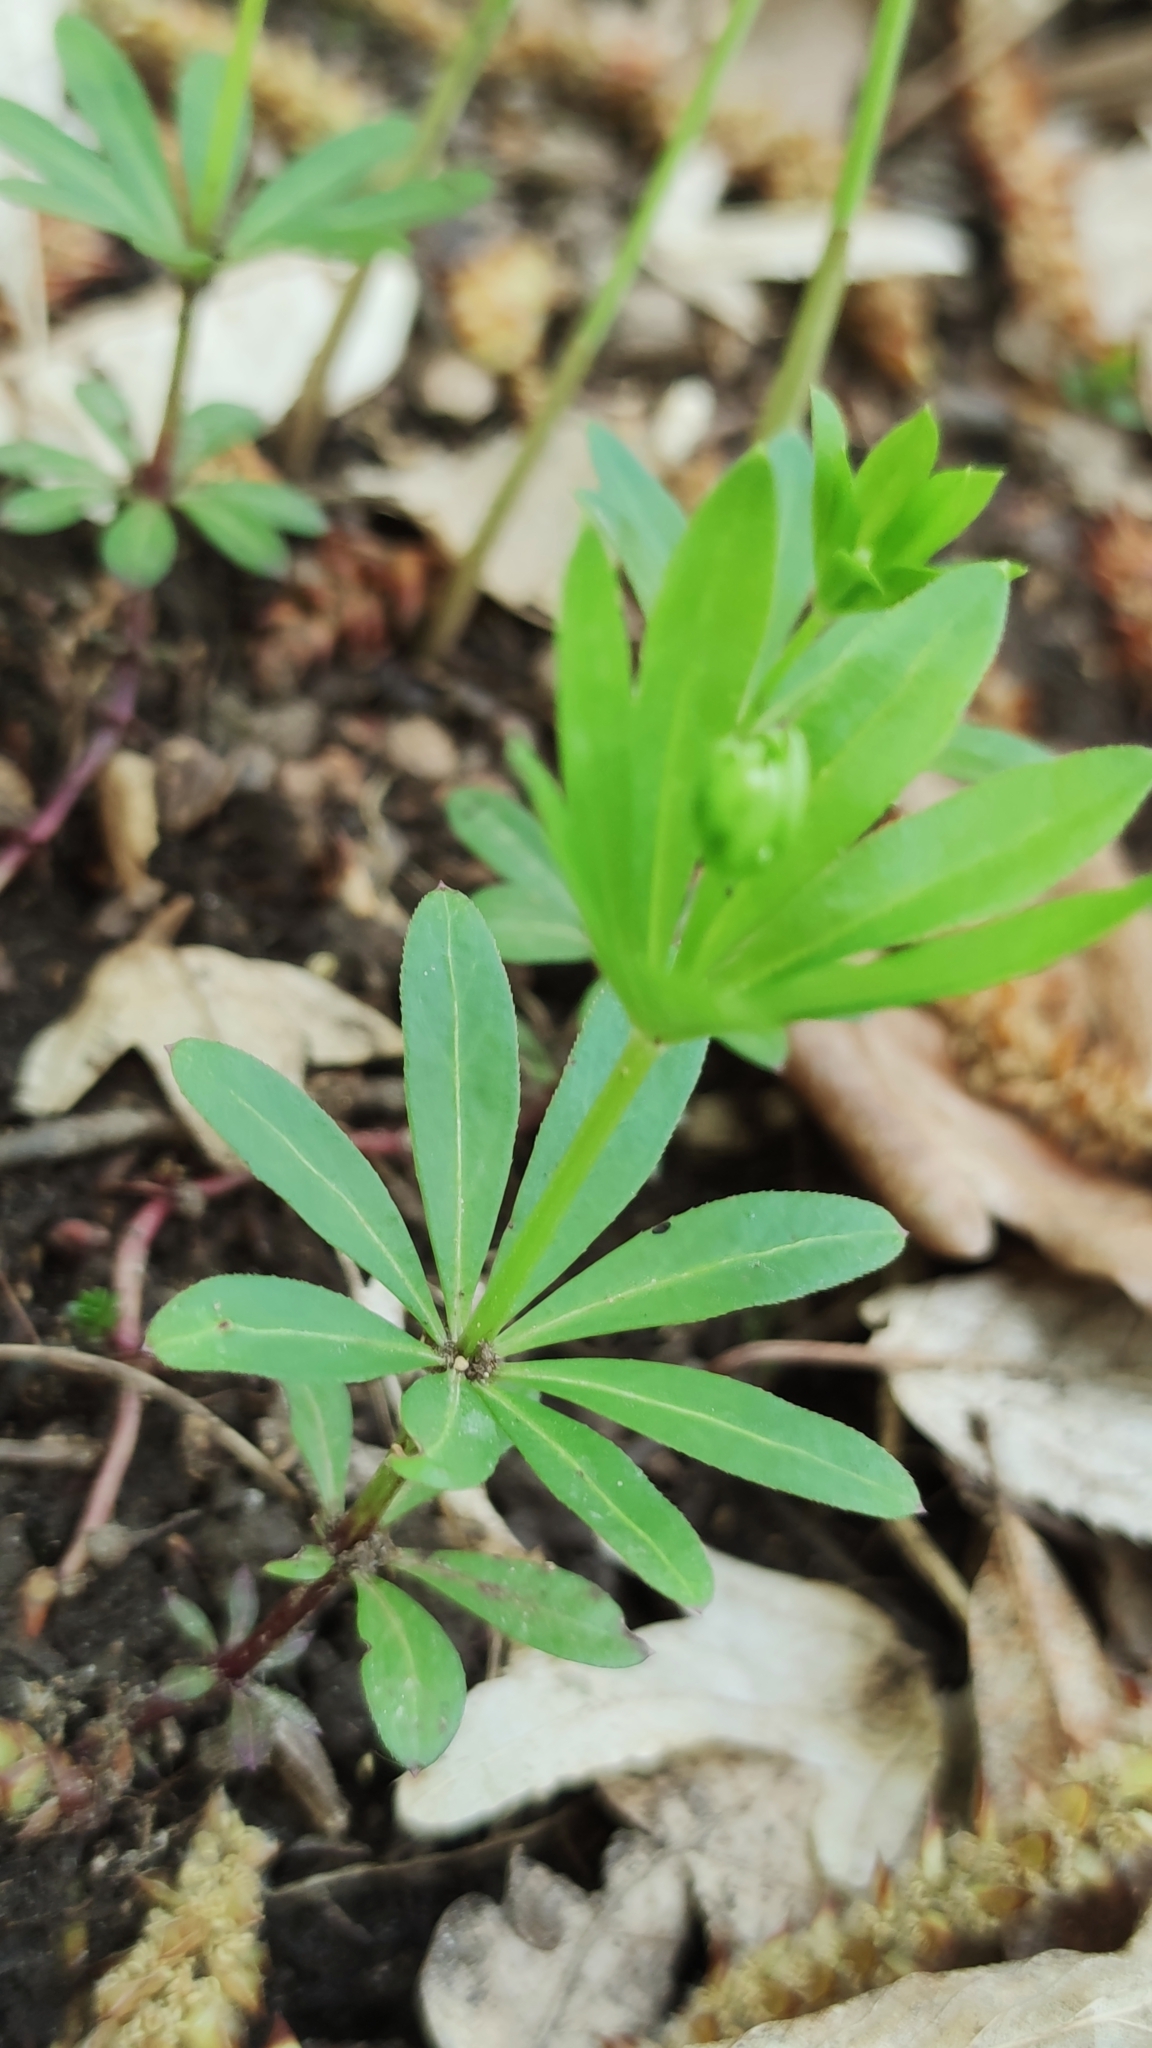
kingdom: Plantae
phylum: Tracheophyta
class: Magnoliopsida
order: Gentianales
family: Rubiaceae
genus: Galium
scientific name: Galium odoratum
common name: Sweet woodruff
